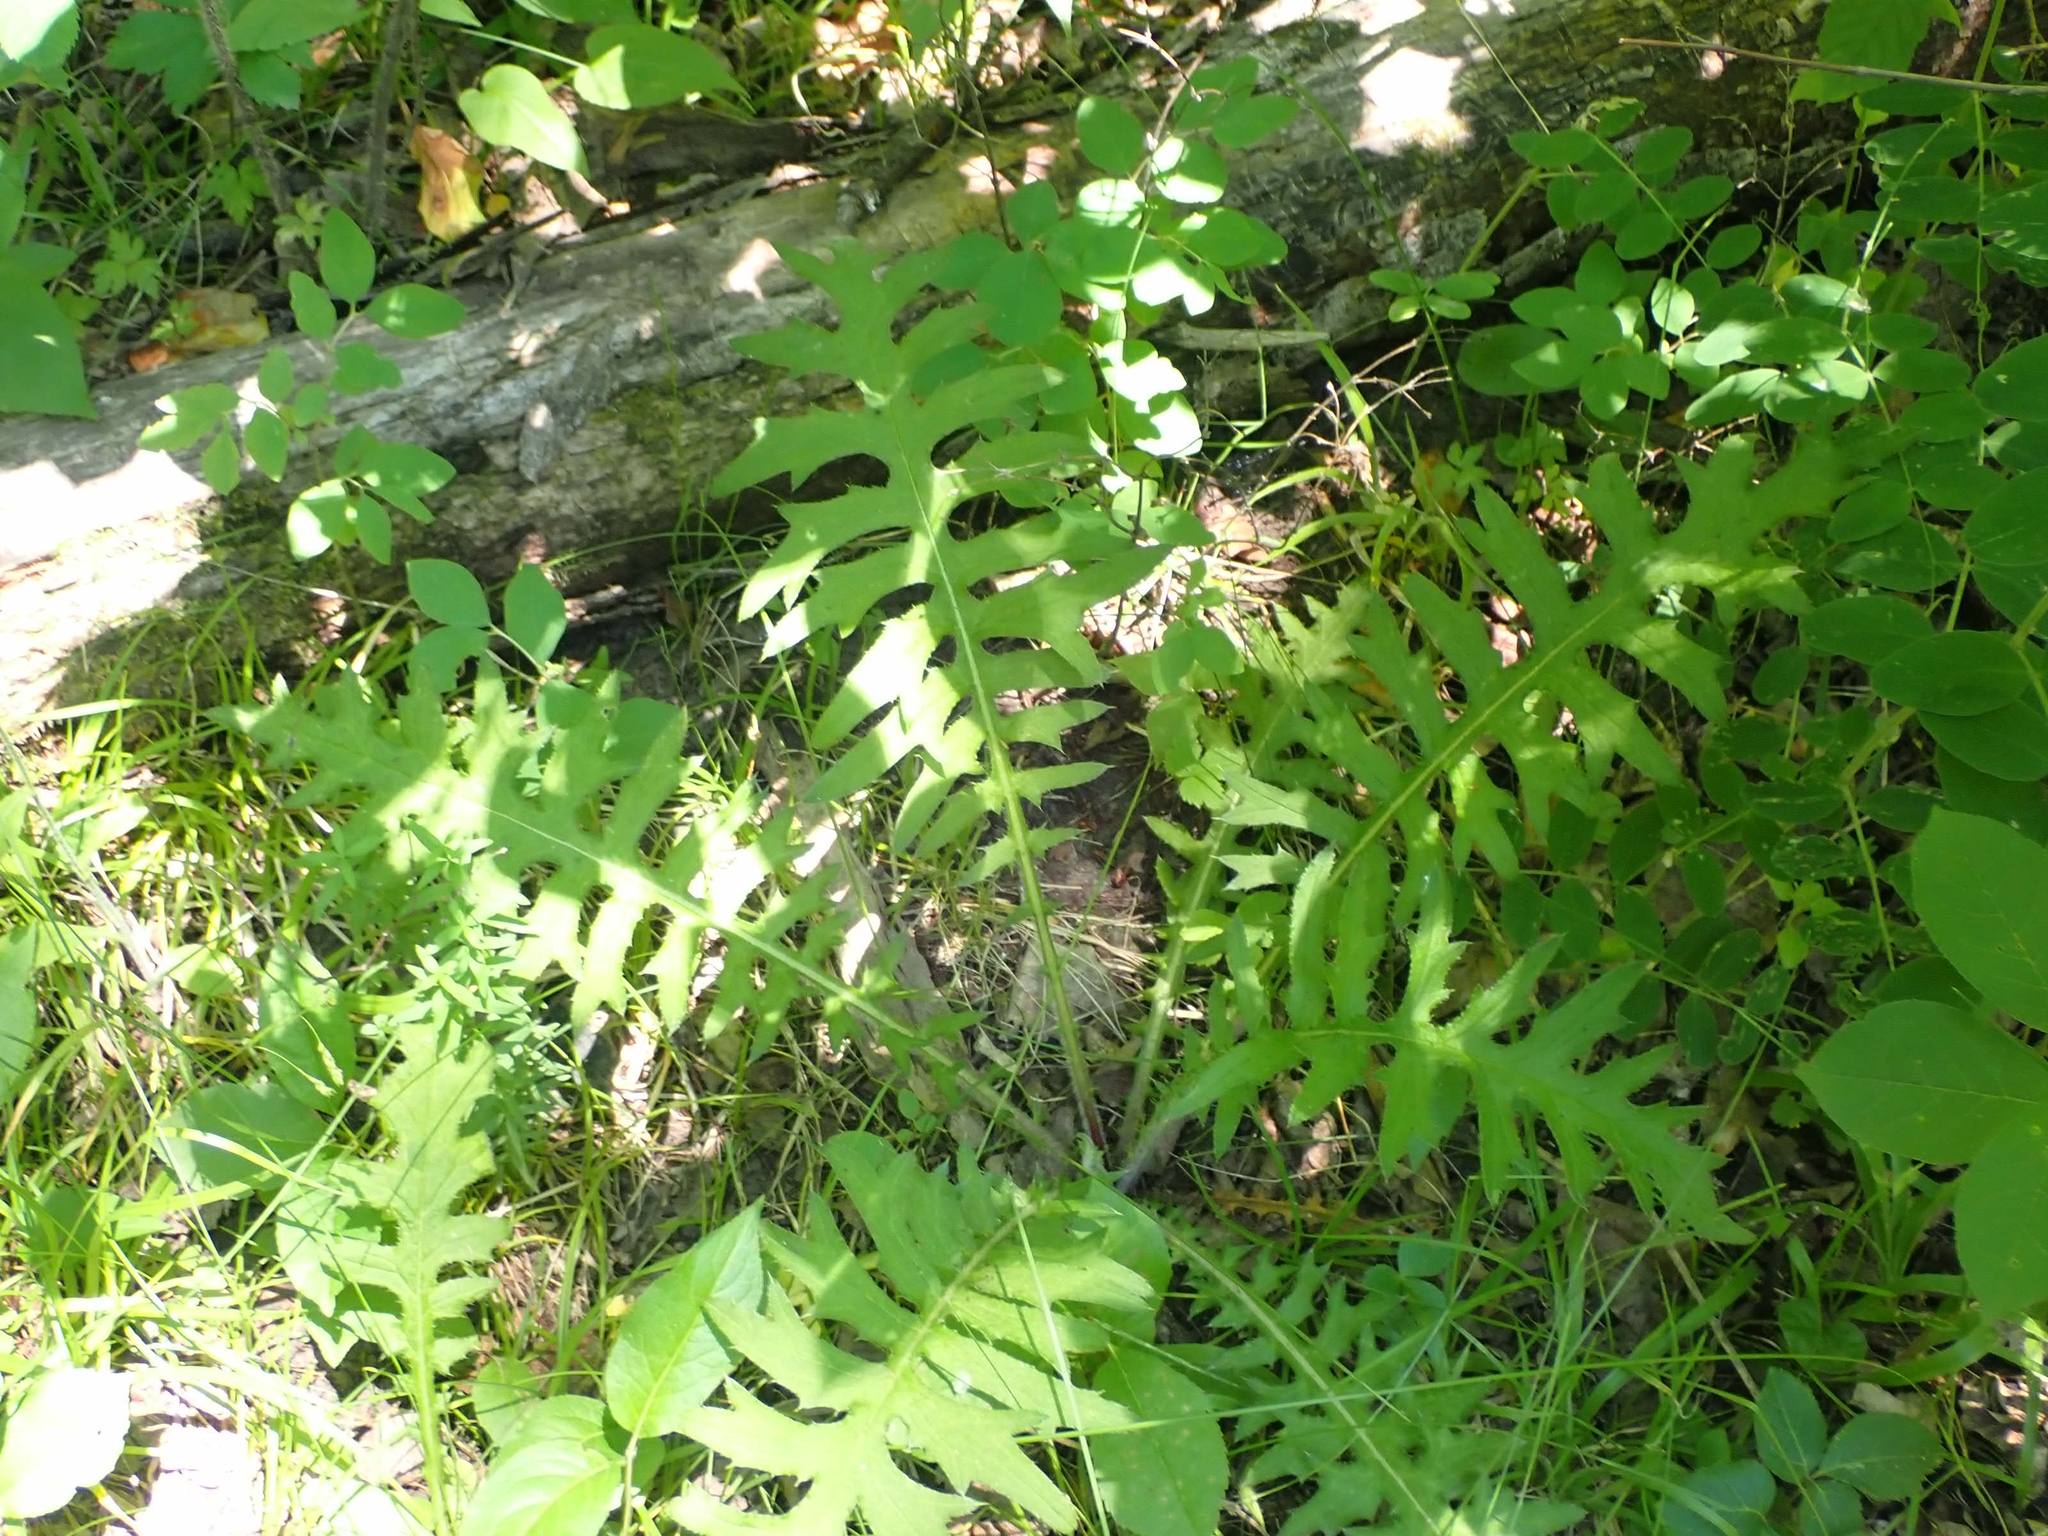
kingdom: Plantae
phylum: Tracheophyta
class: Magnoliopsida
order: Asterales
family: Asteraceae
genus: Cirsium
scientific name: Cirsium muticum
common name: Dunce-nettle
